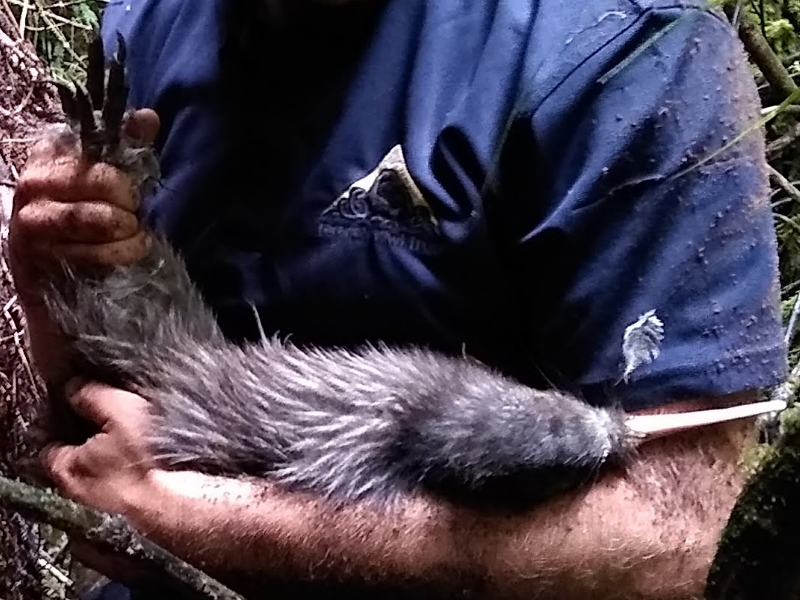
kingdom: Animalia
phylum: Chordata
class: Aves
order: Apterygiformes
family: Apterygidae
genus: Apteryx
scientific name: Apteryx mantelli
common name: North island brown kiwi
